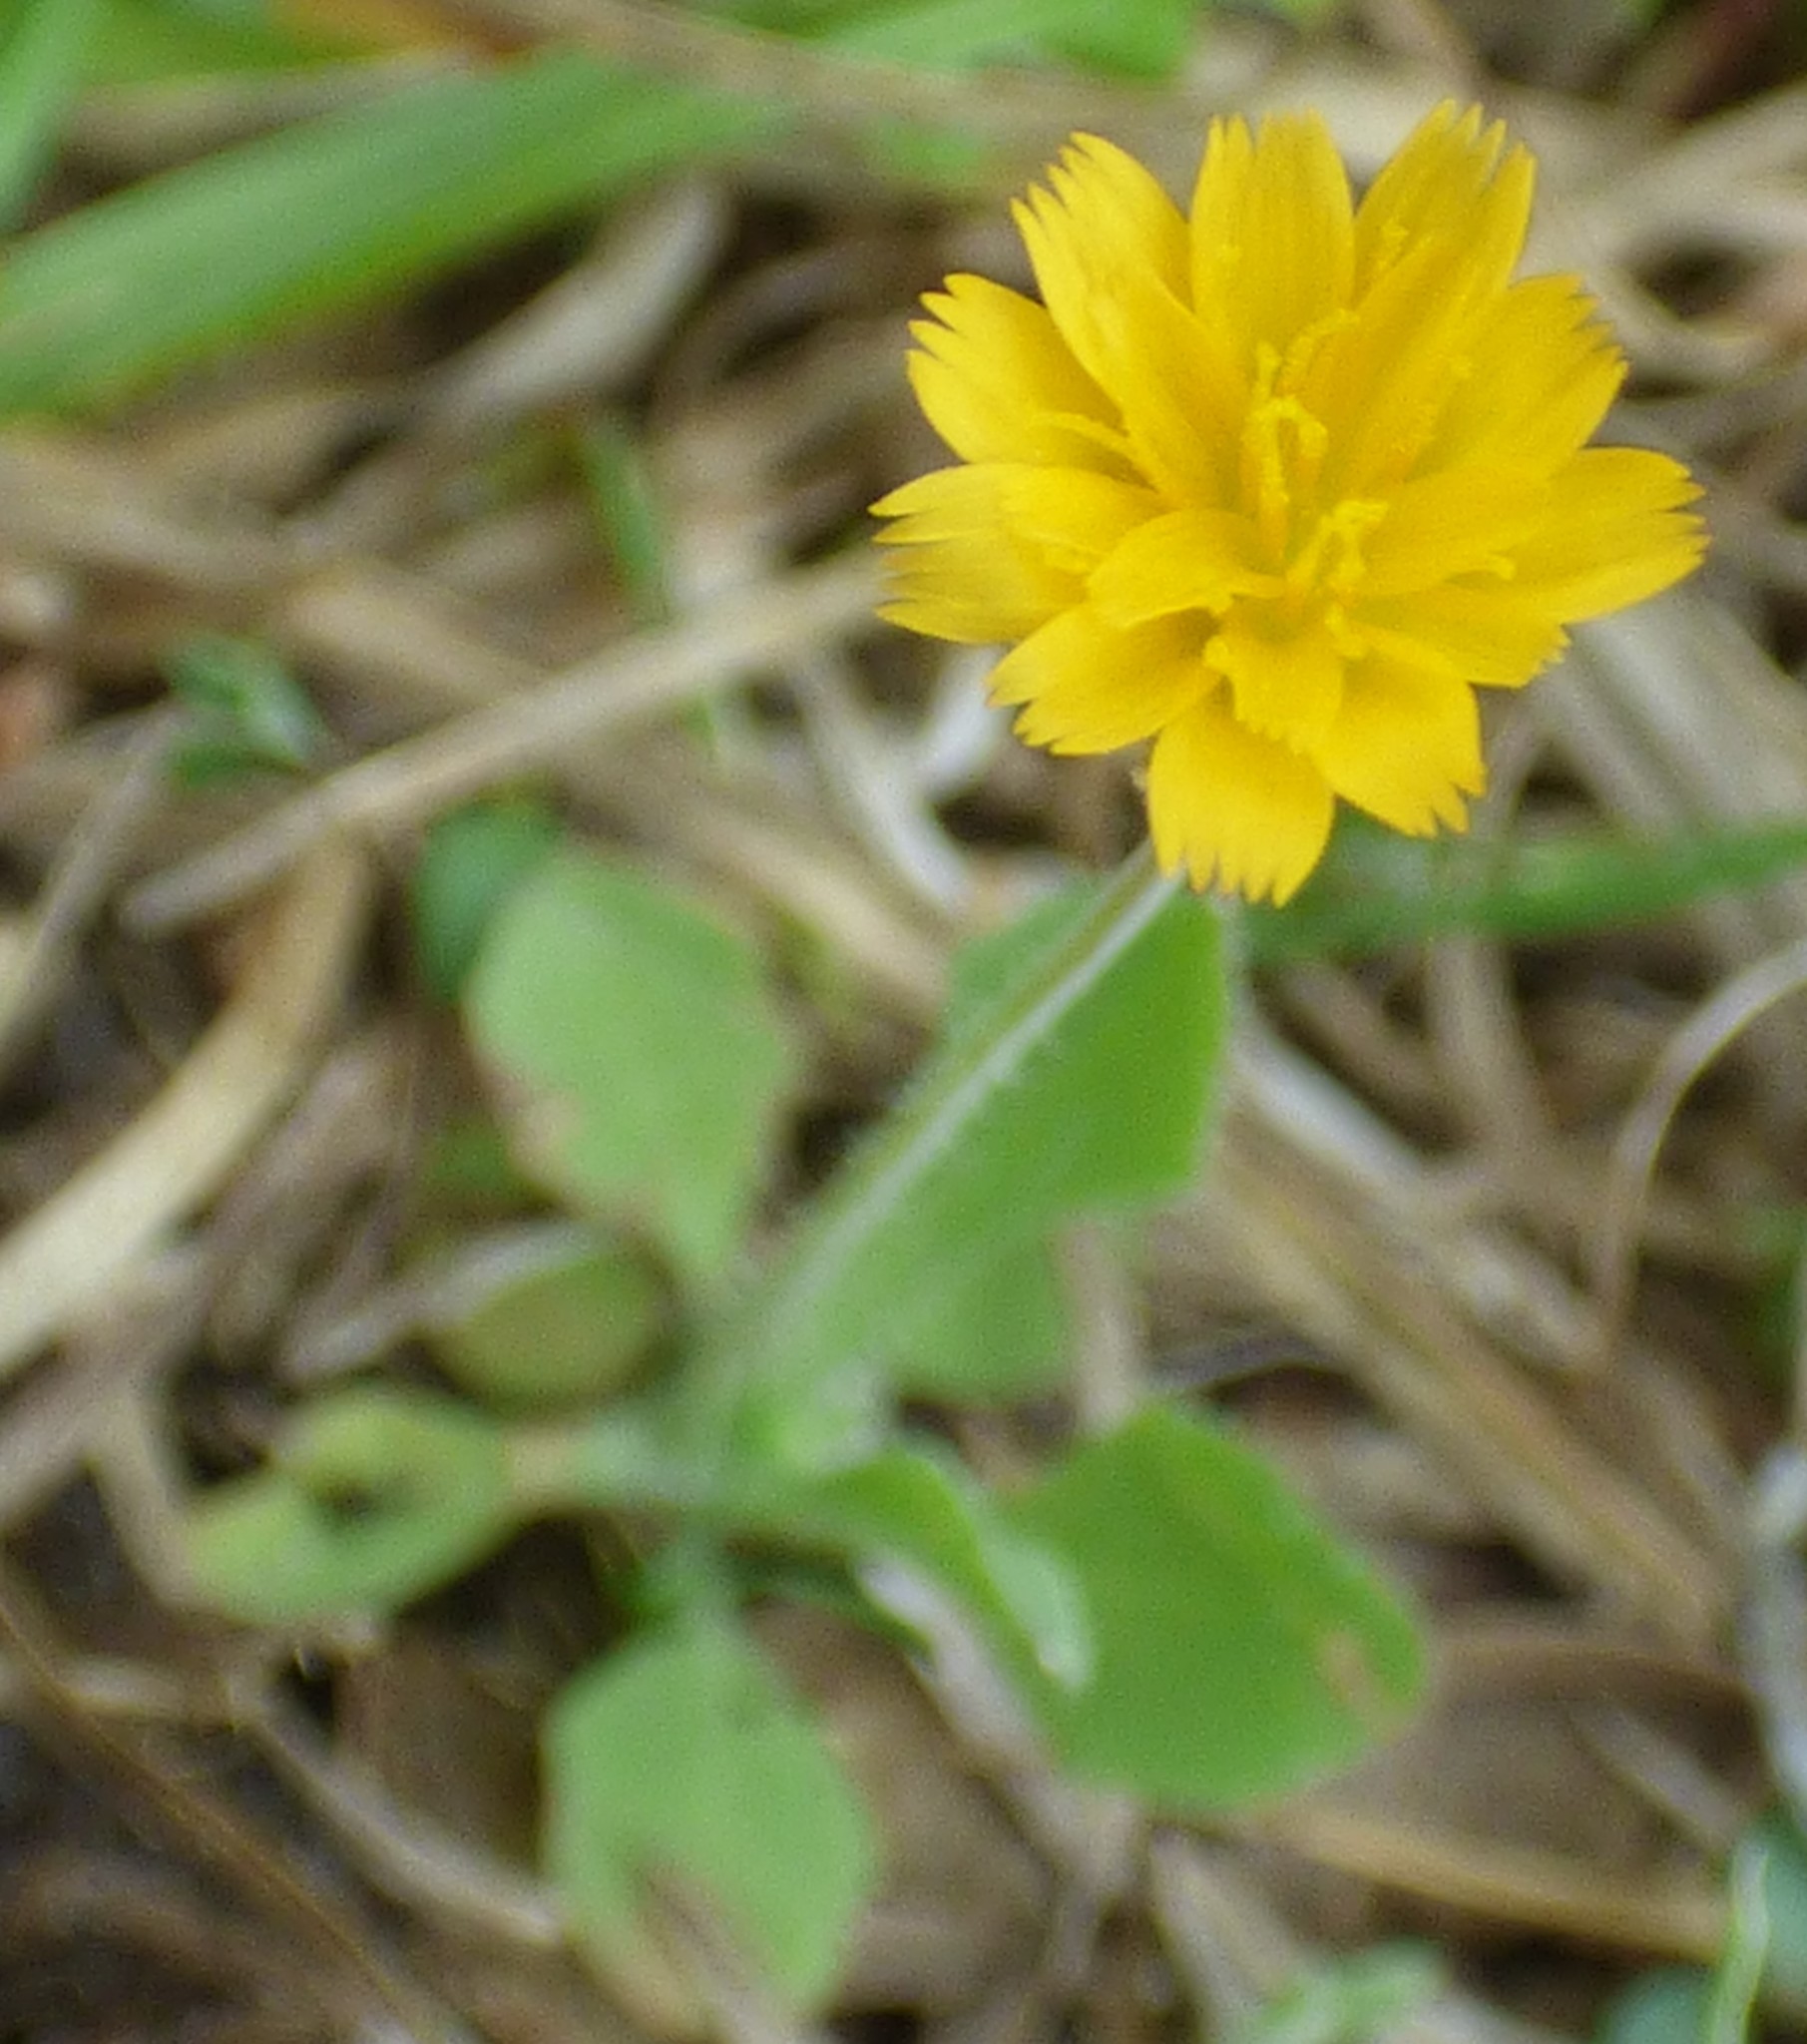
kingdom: Plantae
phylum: Tracheophyta
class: Magnoliopsida
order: Asterales
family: Asteraceae
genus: Krigia
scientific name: Krigia virginica
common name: Virginia dwarf-dandelion
